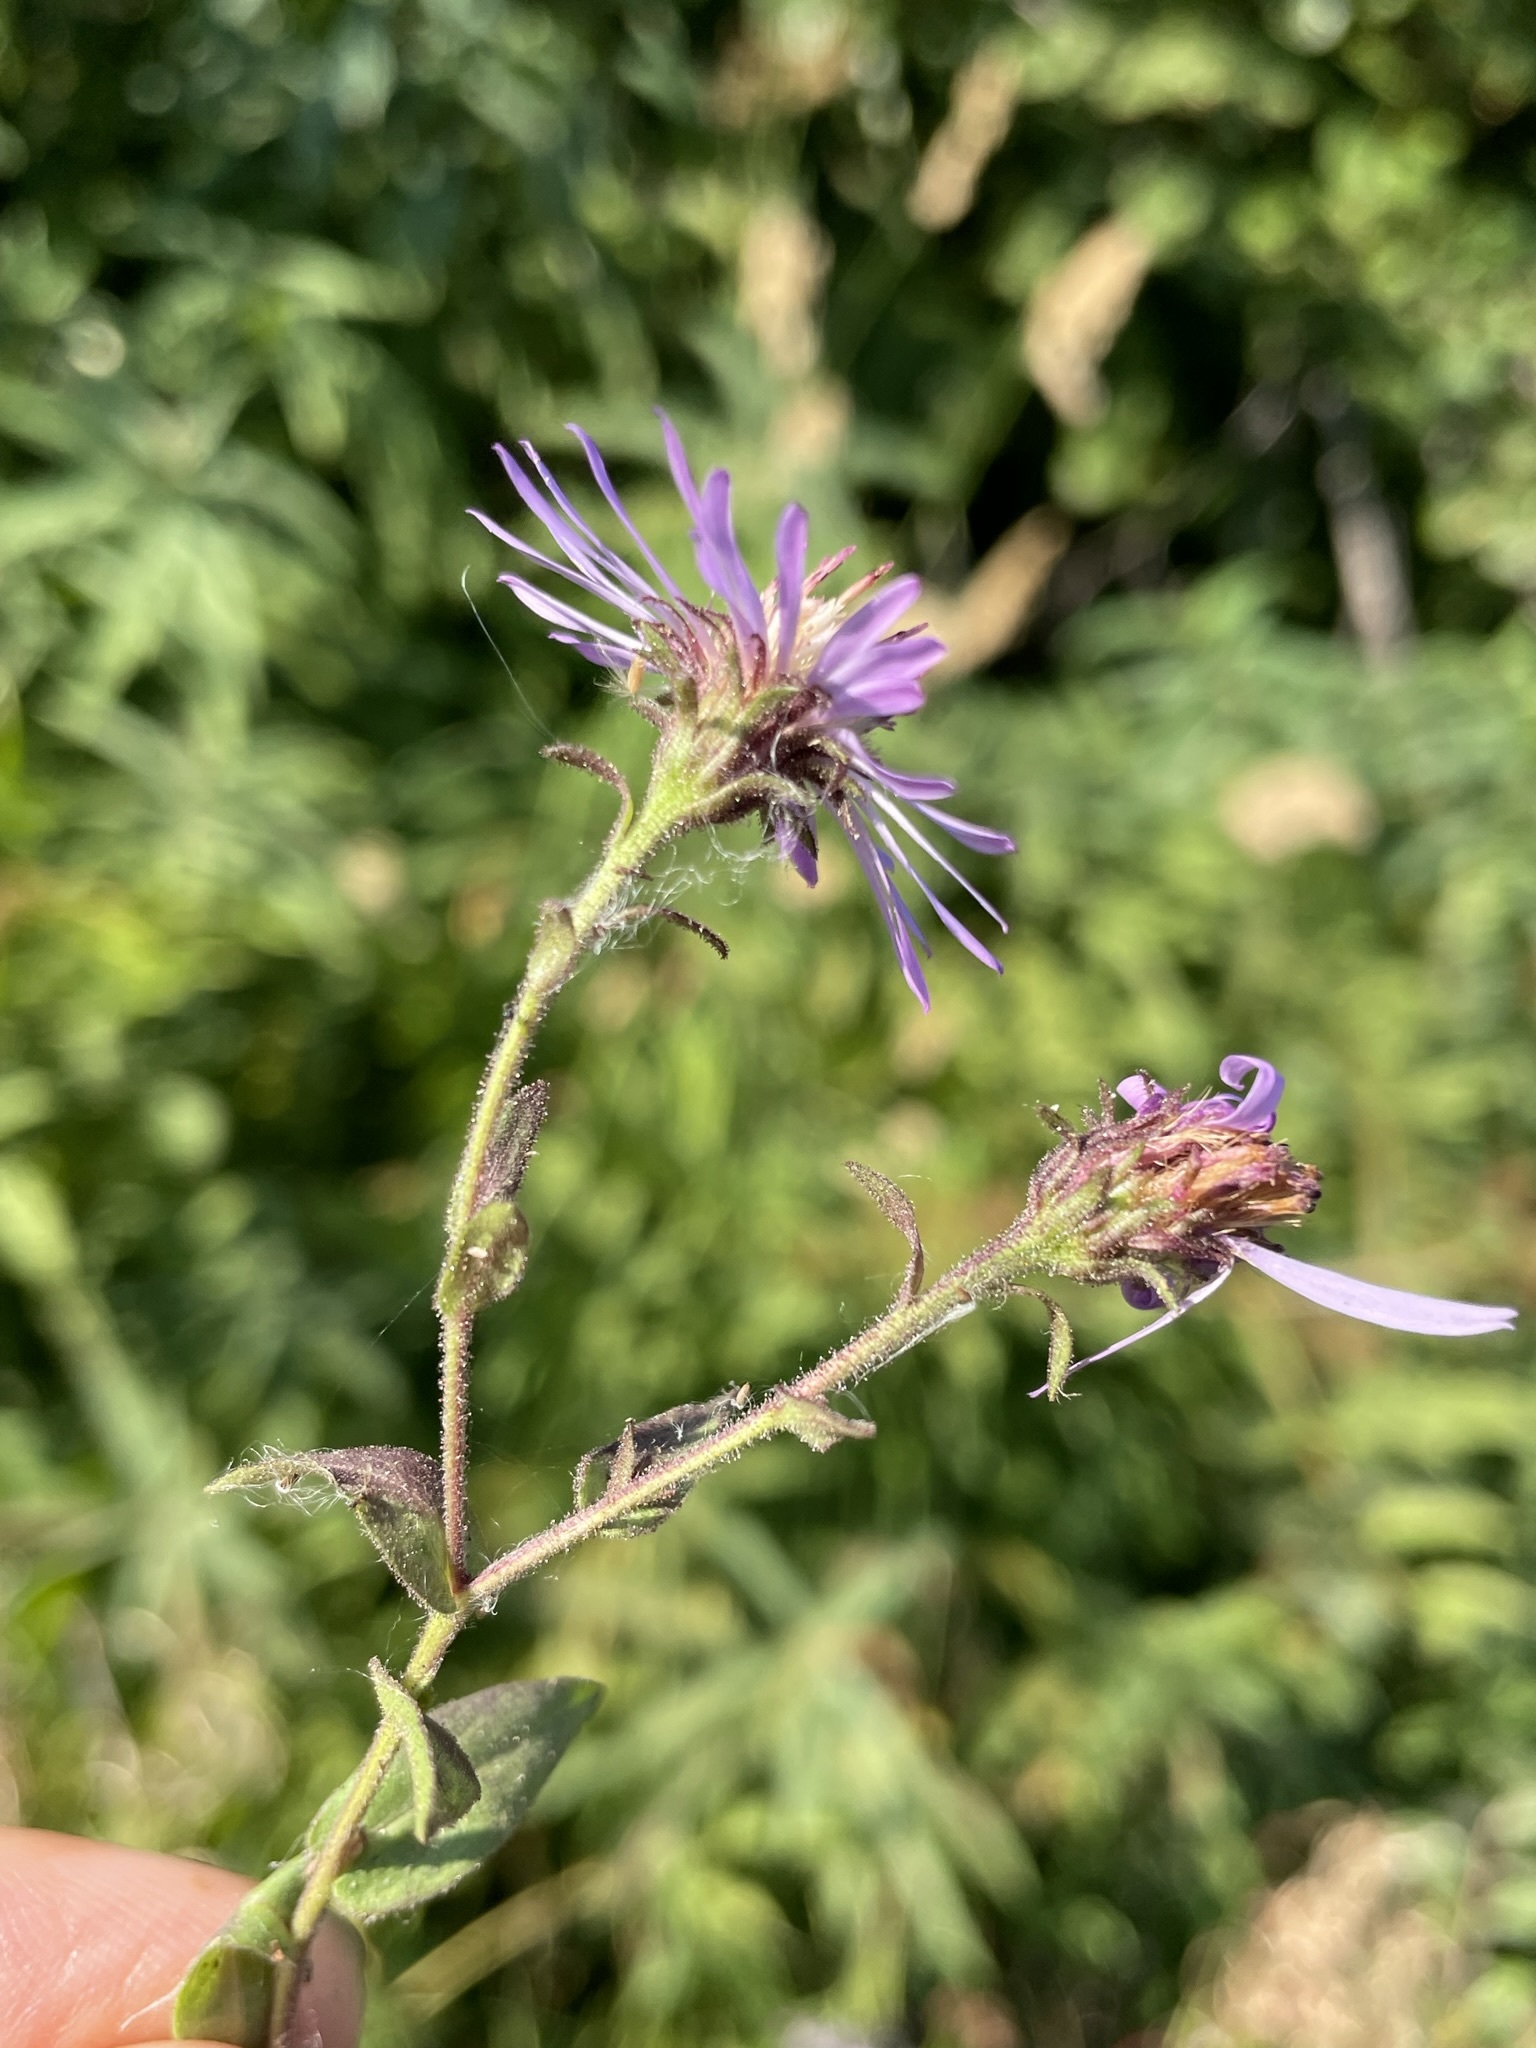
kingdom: Plantae
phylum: Tracheophyta
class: Magnoliopsida
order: Asterales
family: Asteraceae
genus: Canadanthus
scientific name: Canadanthus modestus
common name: Great northern aster
